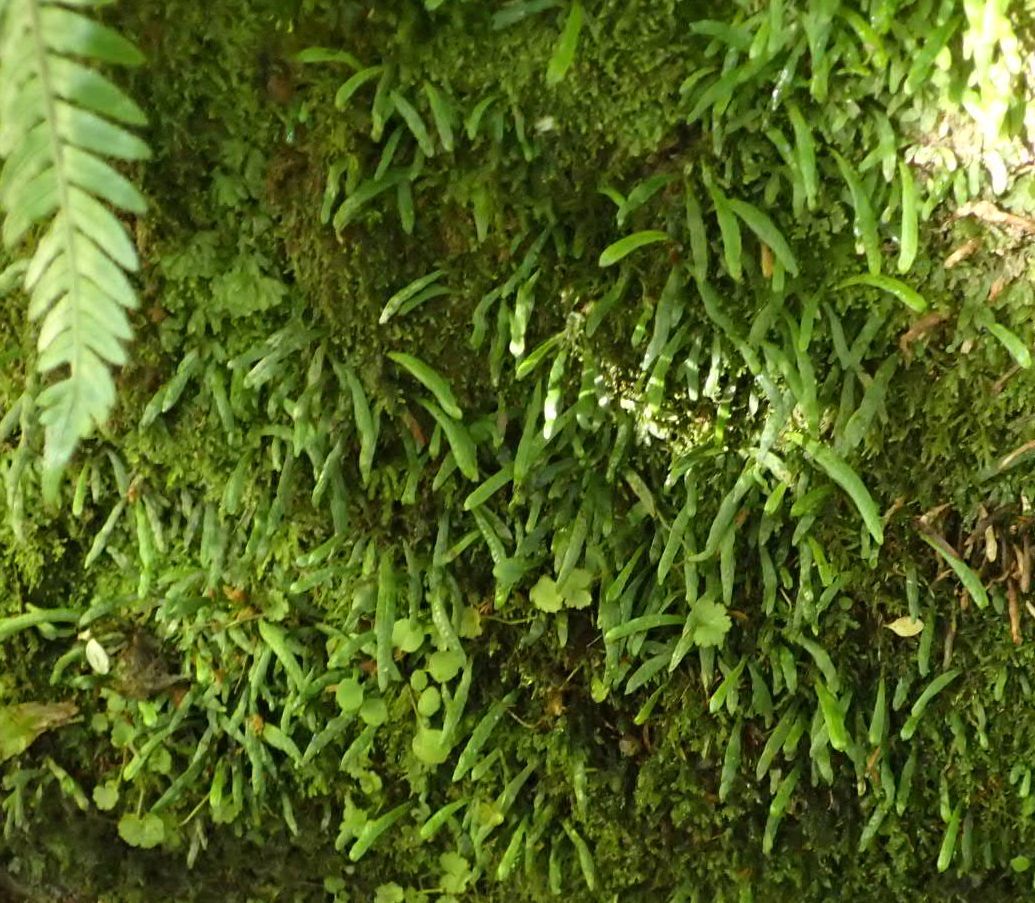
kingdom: Plantae
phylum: Tracheophyta
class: Polypodiopsida
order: Polypodiales
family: Polypodiaceae
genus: Notogrammitis
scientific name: Notogrammitis ciliata
